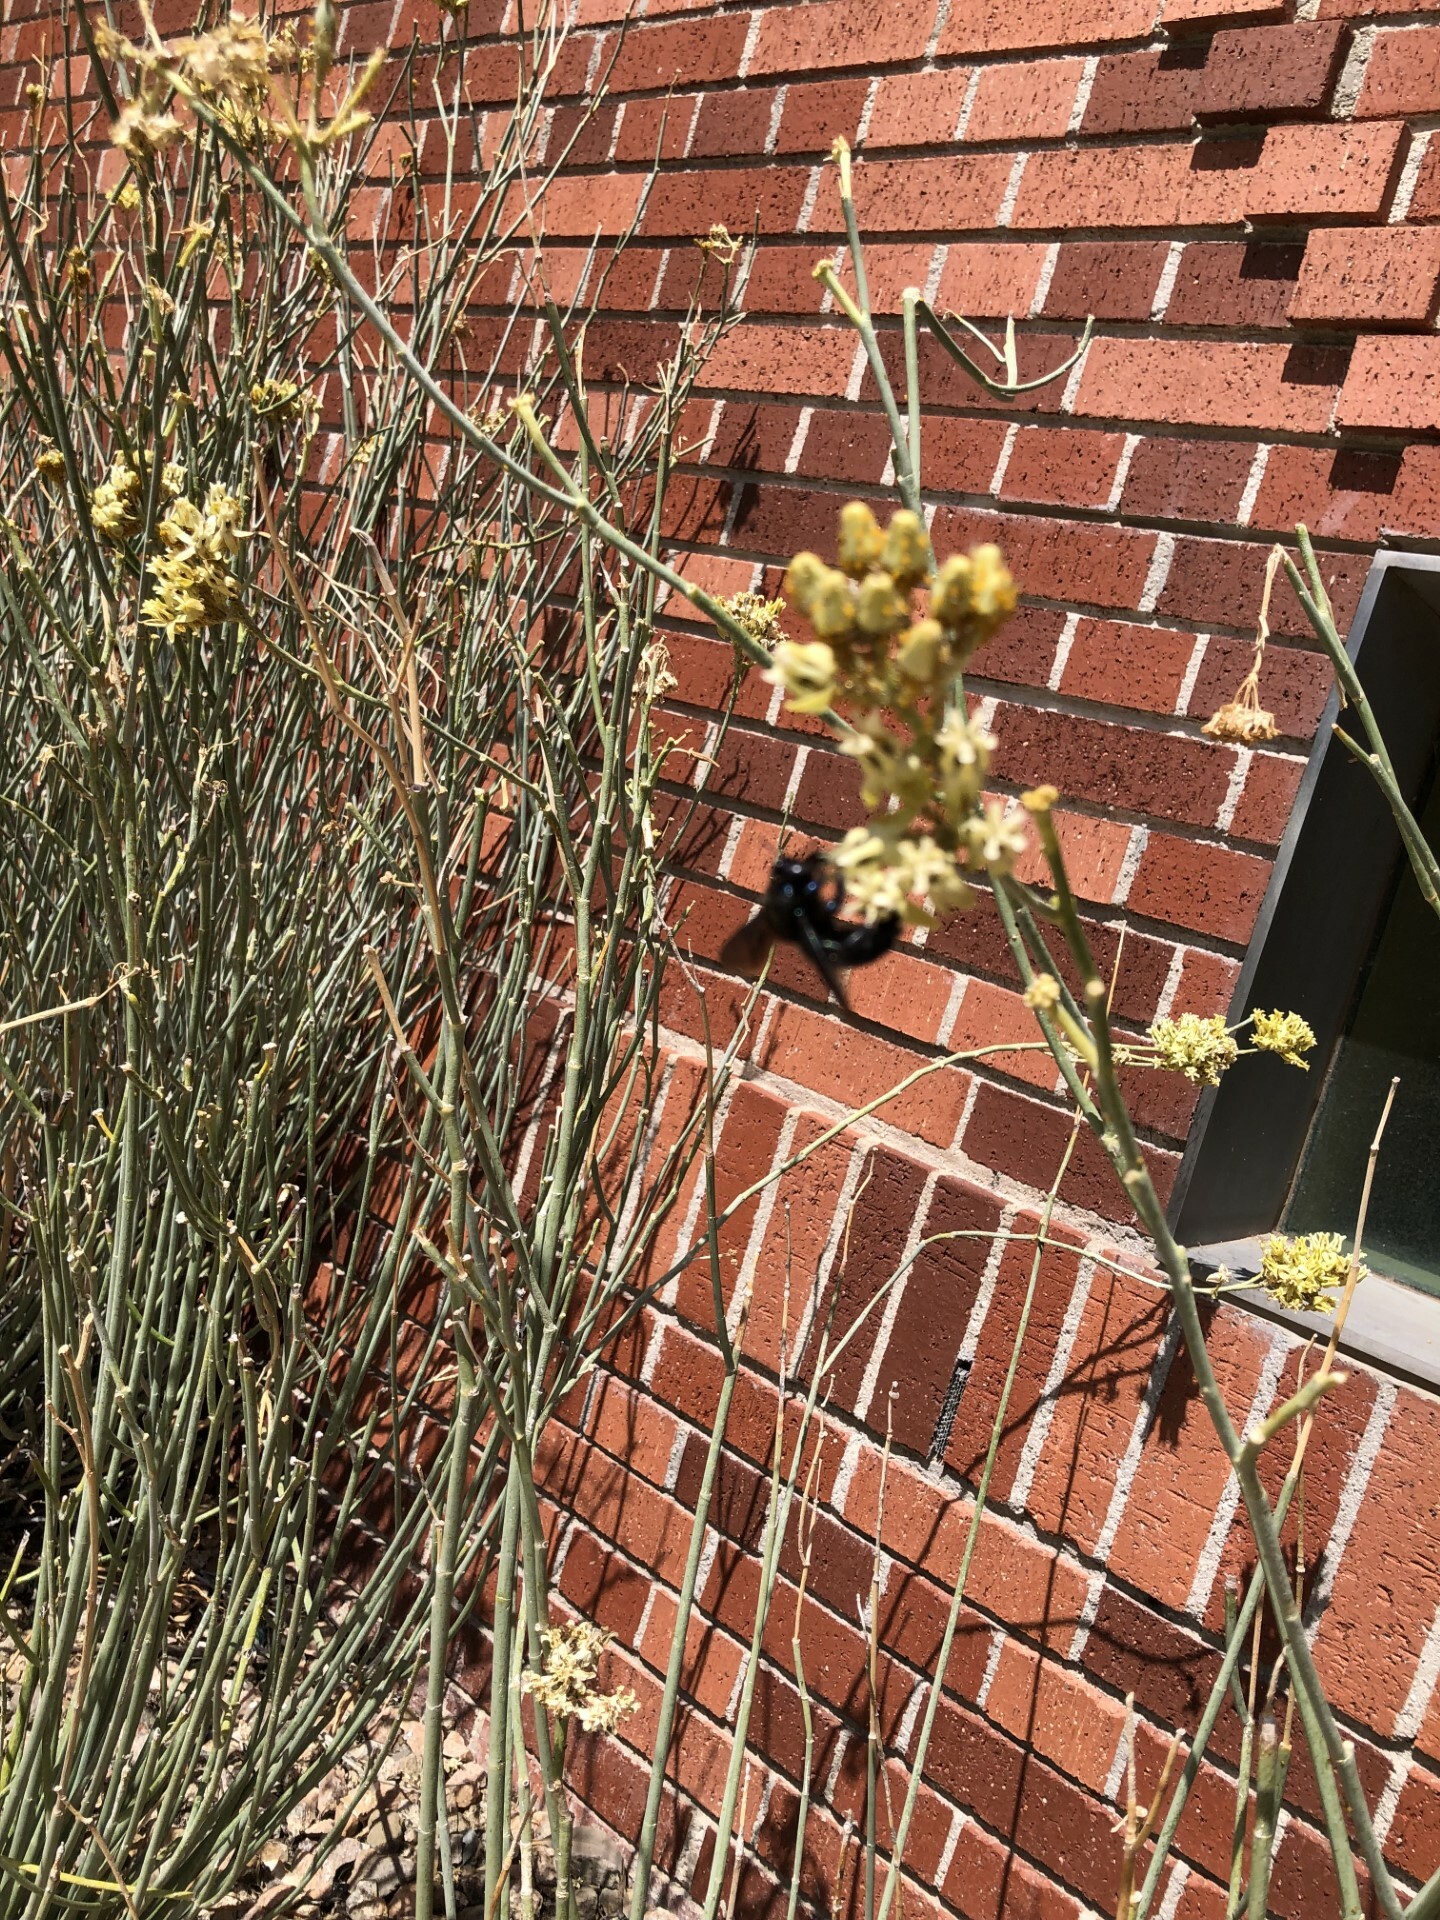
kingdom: Animalia
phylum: Arthropoda
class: Insecta
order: Hymenoptera
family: Apidae
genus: Xylocopa
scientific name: Xylocopa californica
